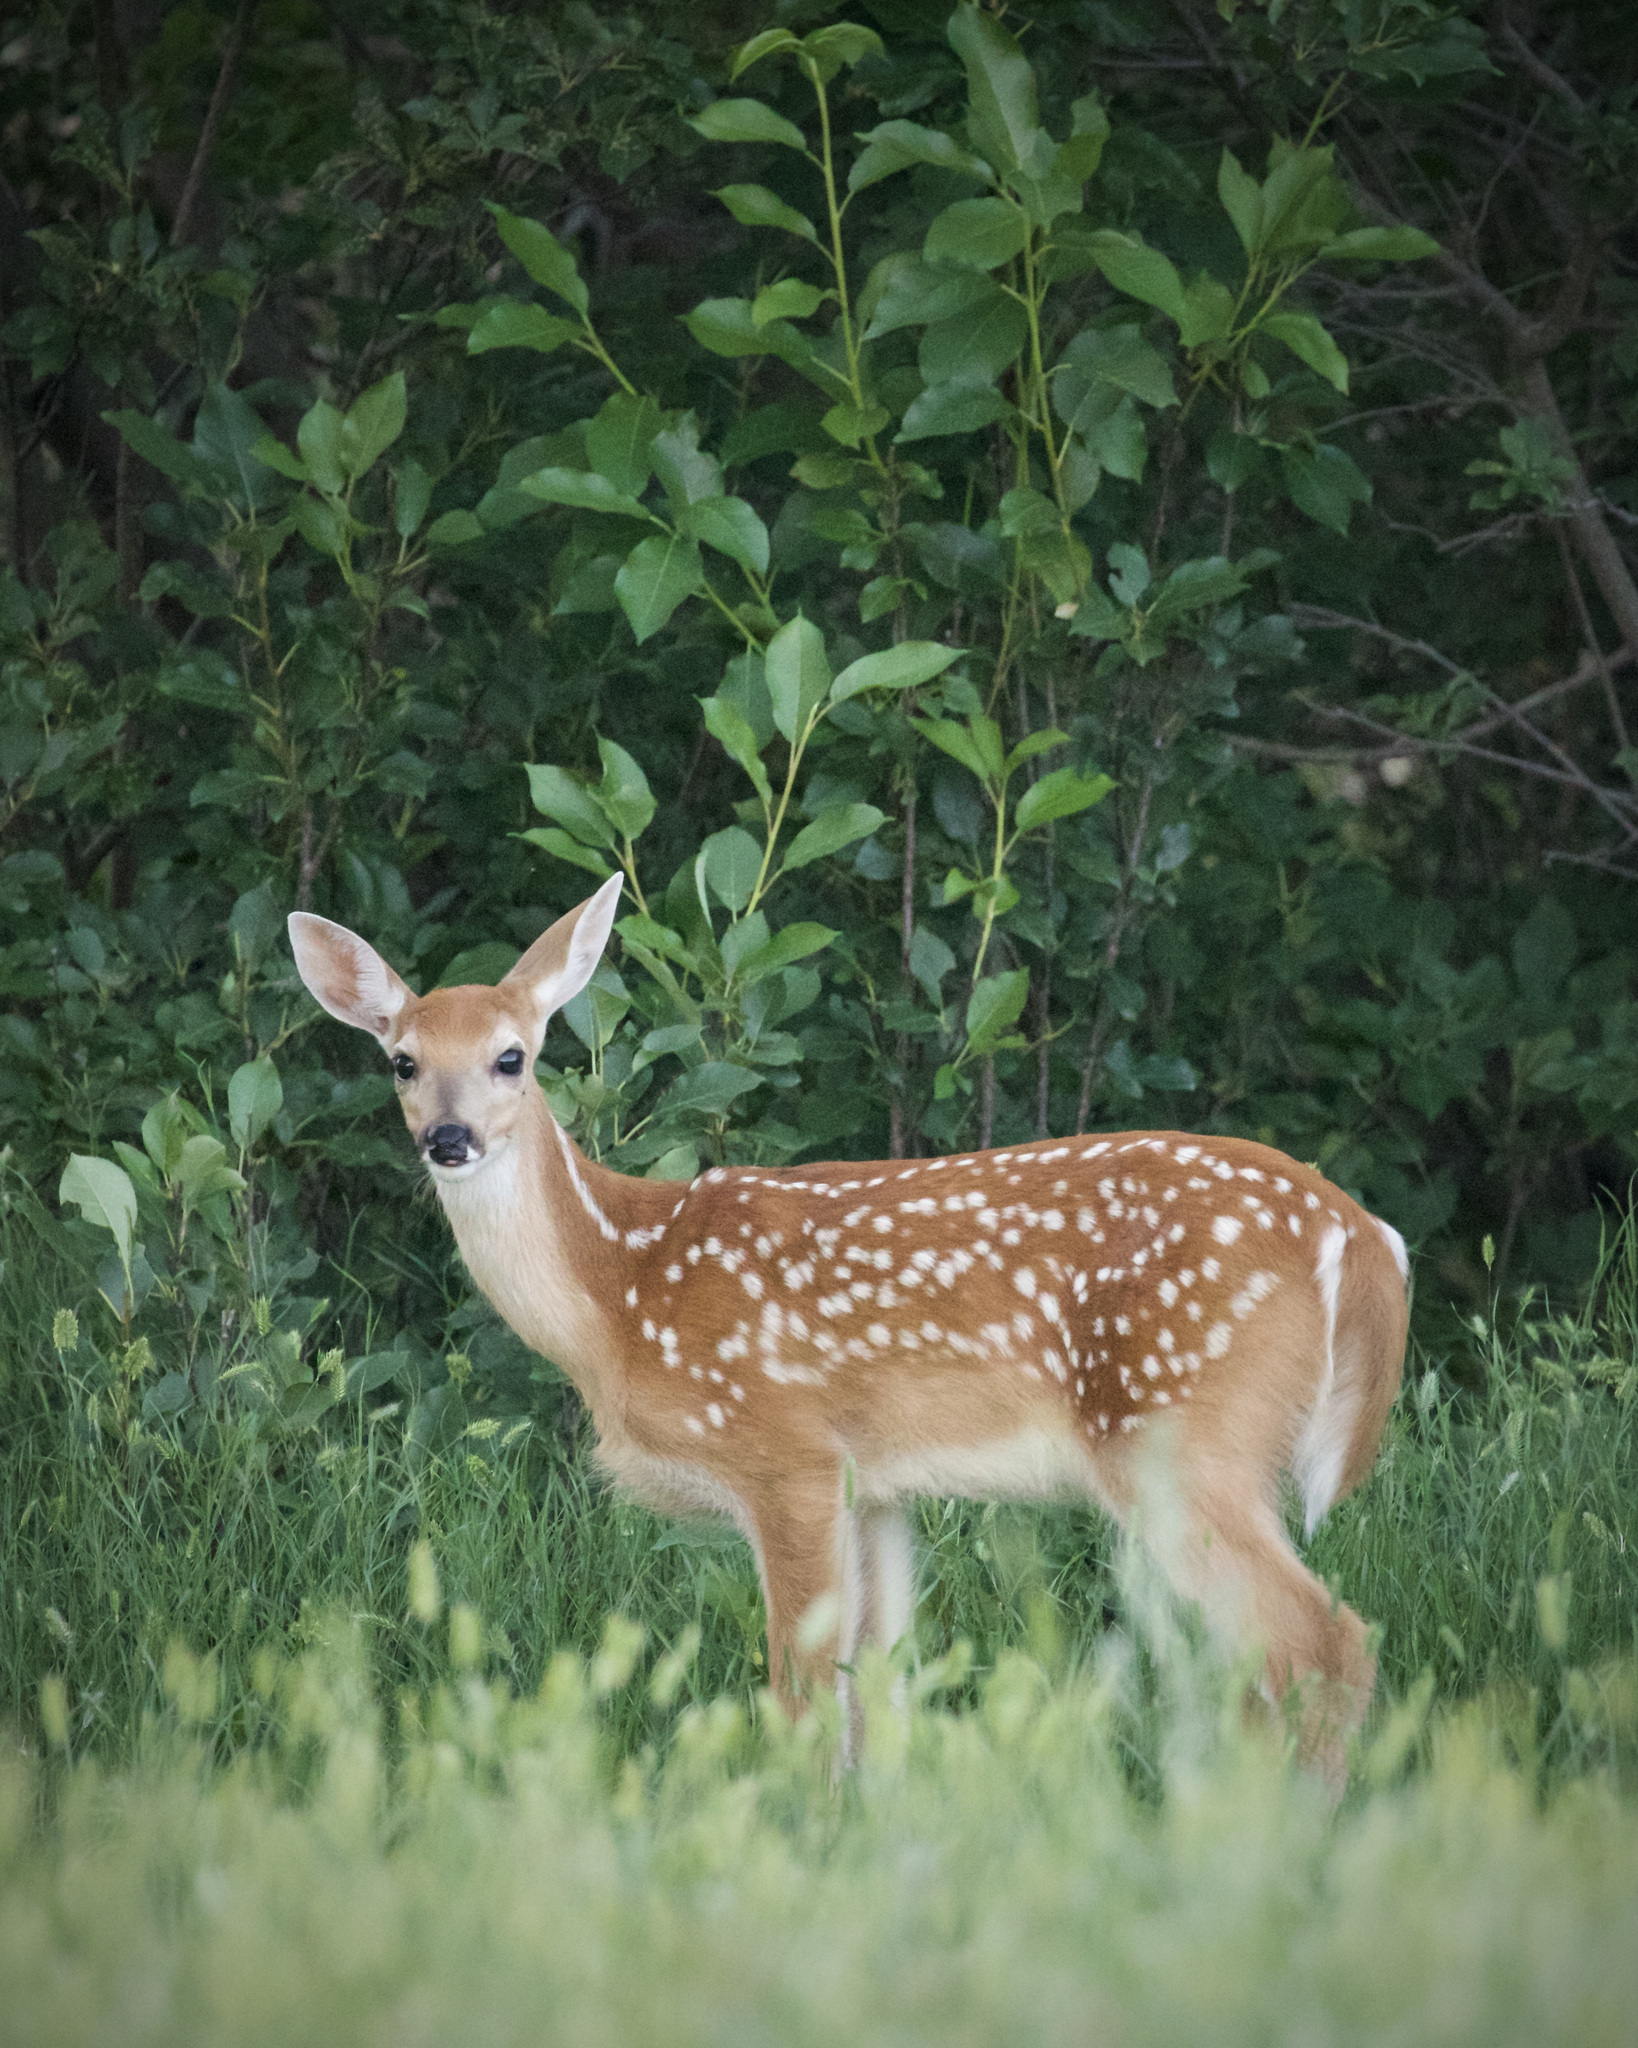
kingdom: Animalia
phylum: Chordata
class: Mammalia
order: Artiodactyla
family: Cervidae
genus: Odocoileus
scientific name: Odocoileus virginianus
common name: White-tailed deer
